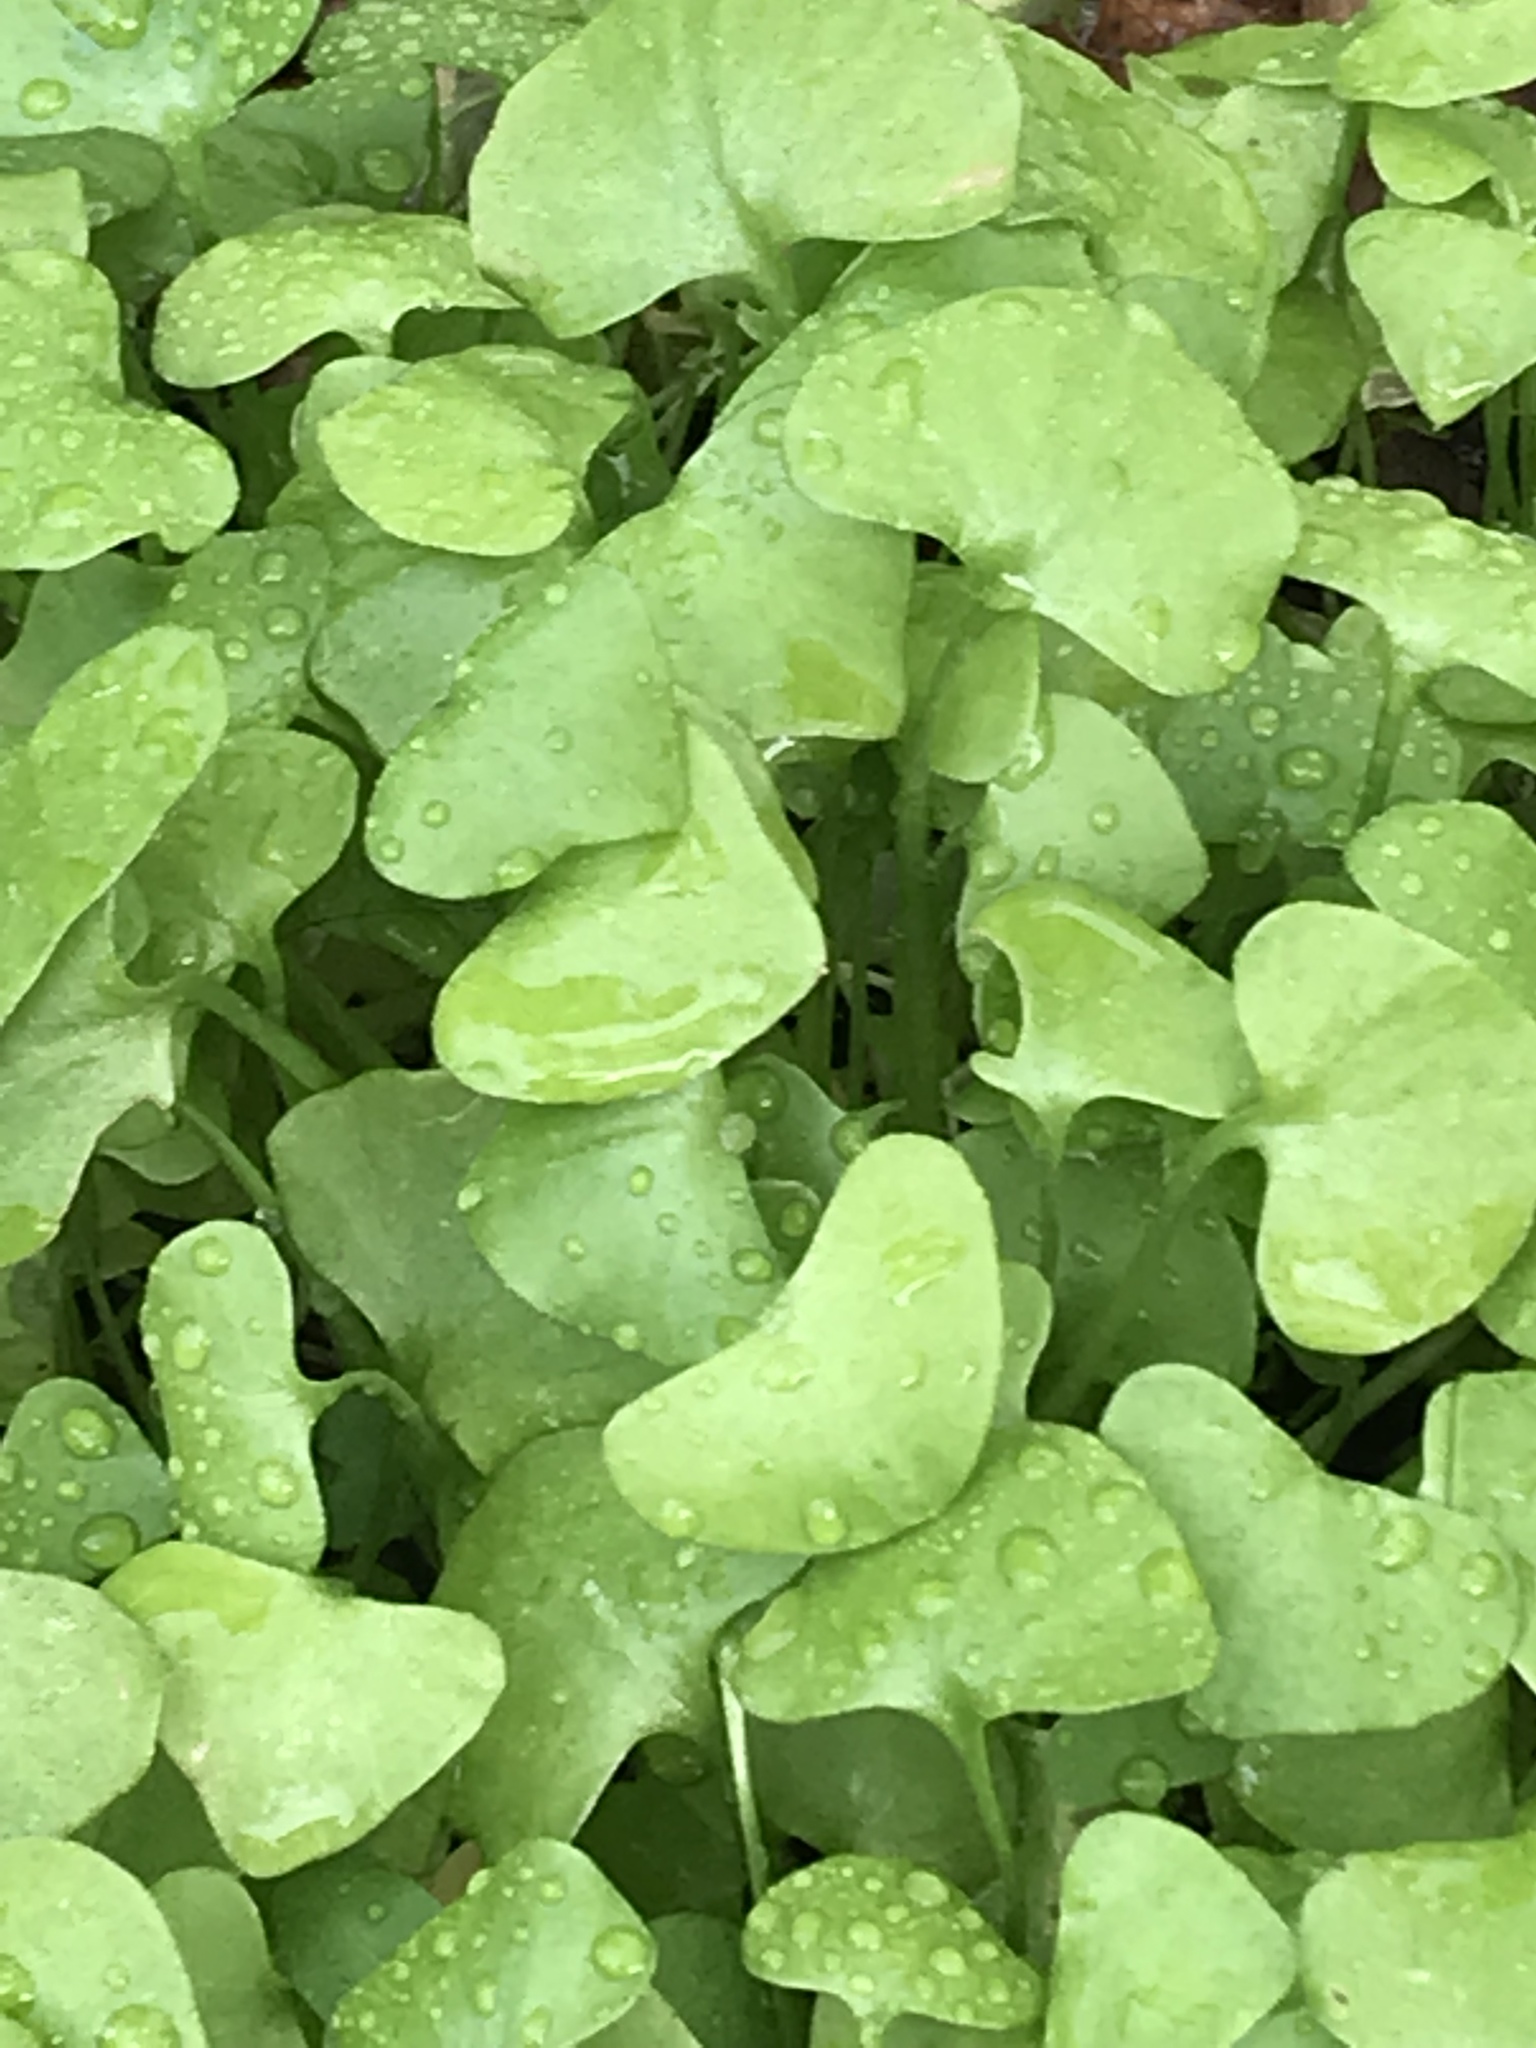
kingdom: Plantae
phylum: Tracheophyta
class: Magnoliopsida
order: Caryophyllales
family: Montiaceae
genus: Claytonia
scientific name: Claytonia perfoliata
